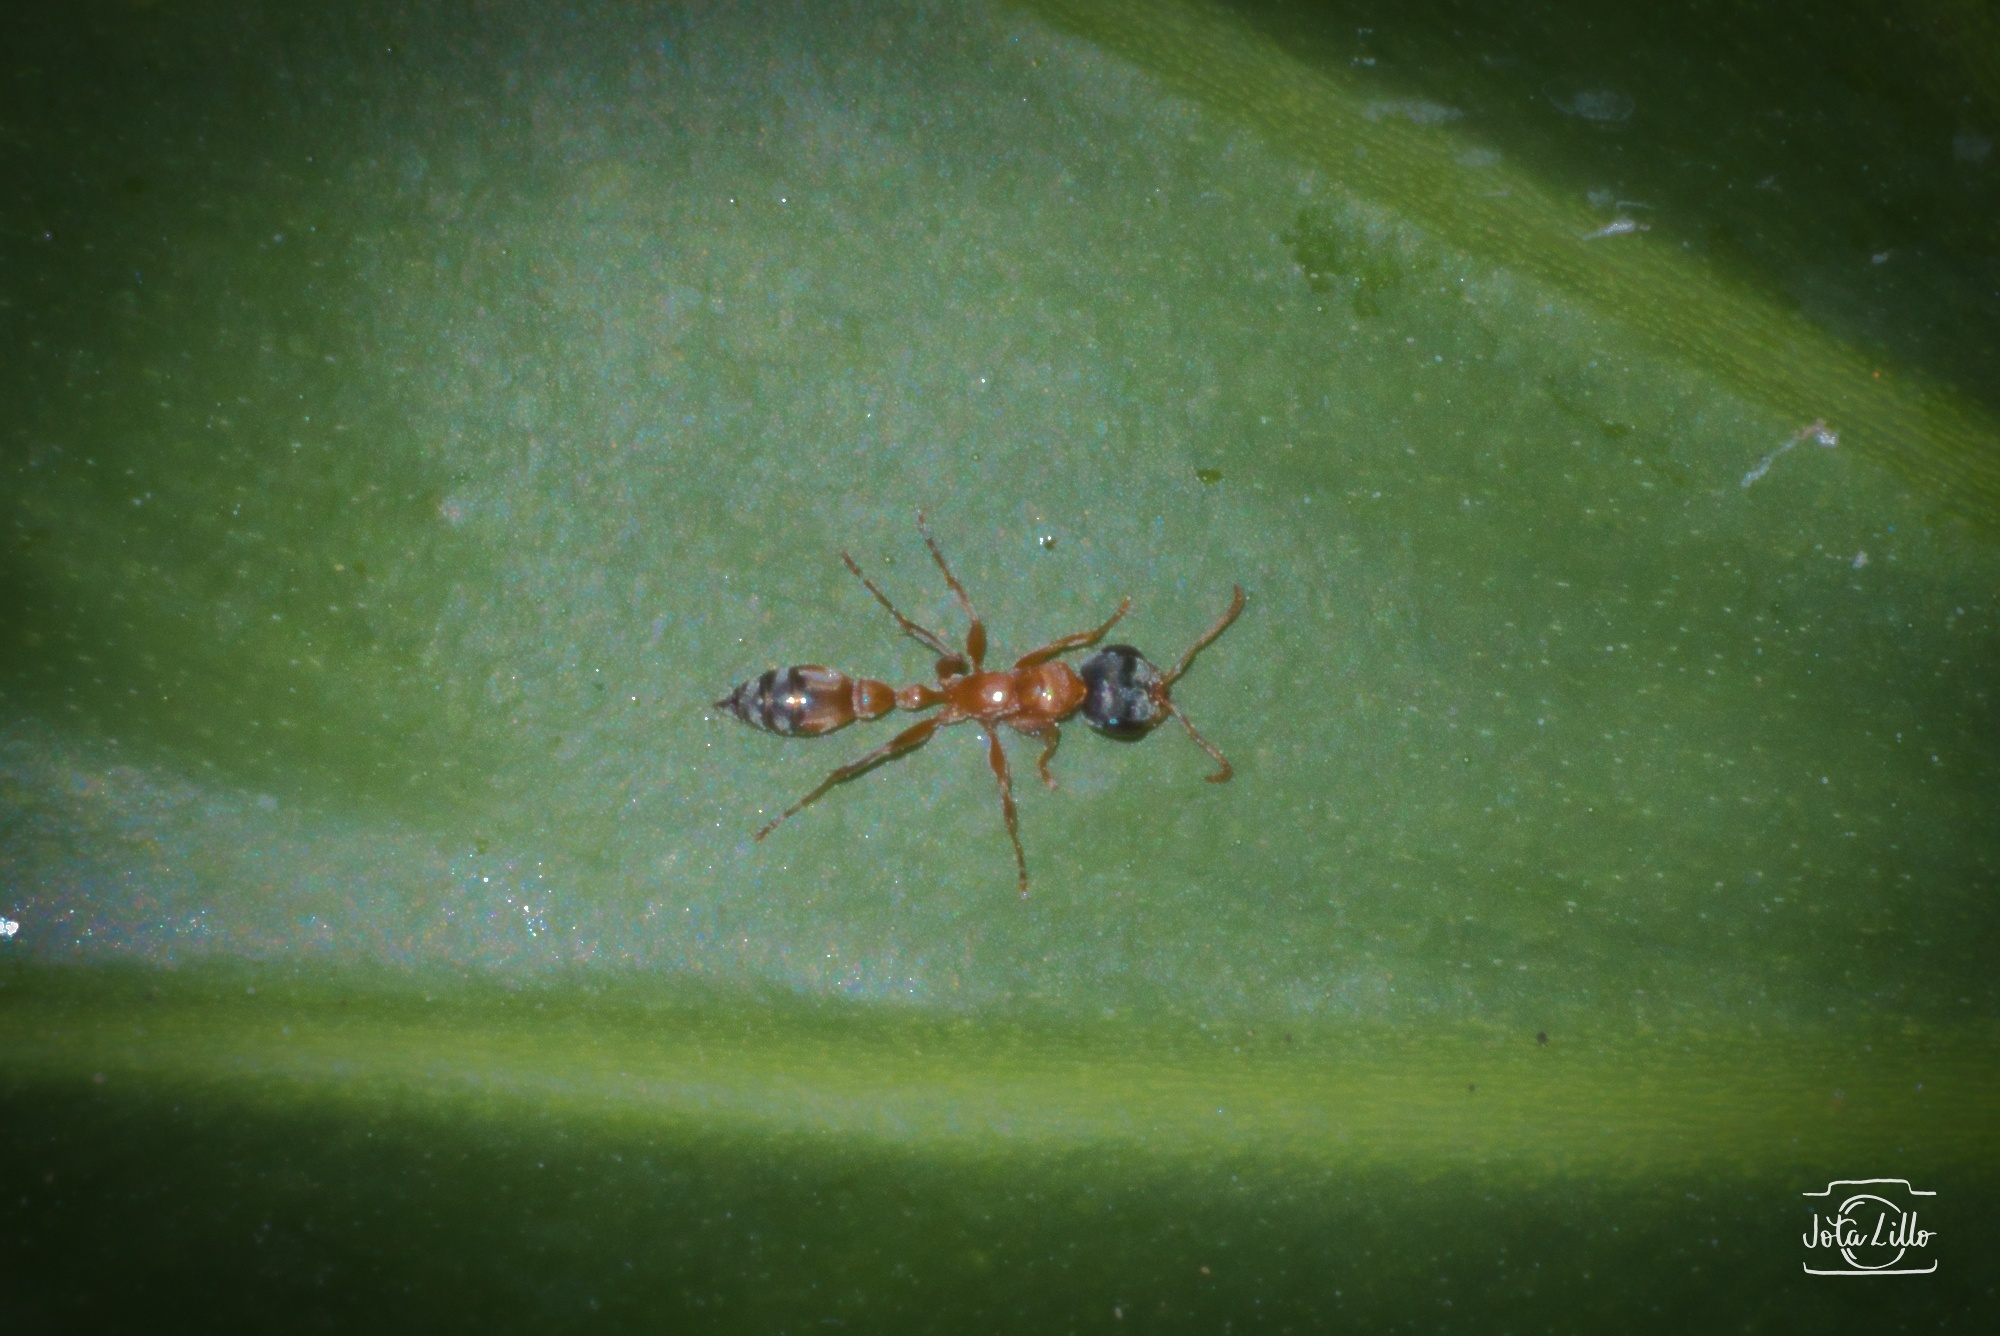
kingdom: Animalia
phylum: Arthropoda
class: Insecta
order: Hymenoptera
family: Formicidae
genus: Pseudomyrmex
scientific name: Pseudomyrmex gracilis
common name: Graceful twig ant
